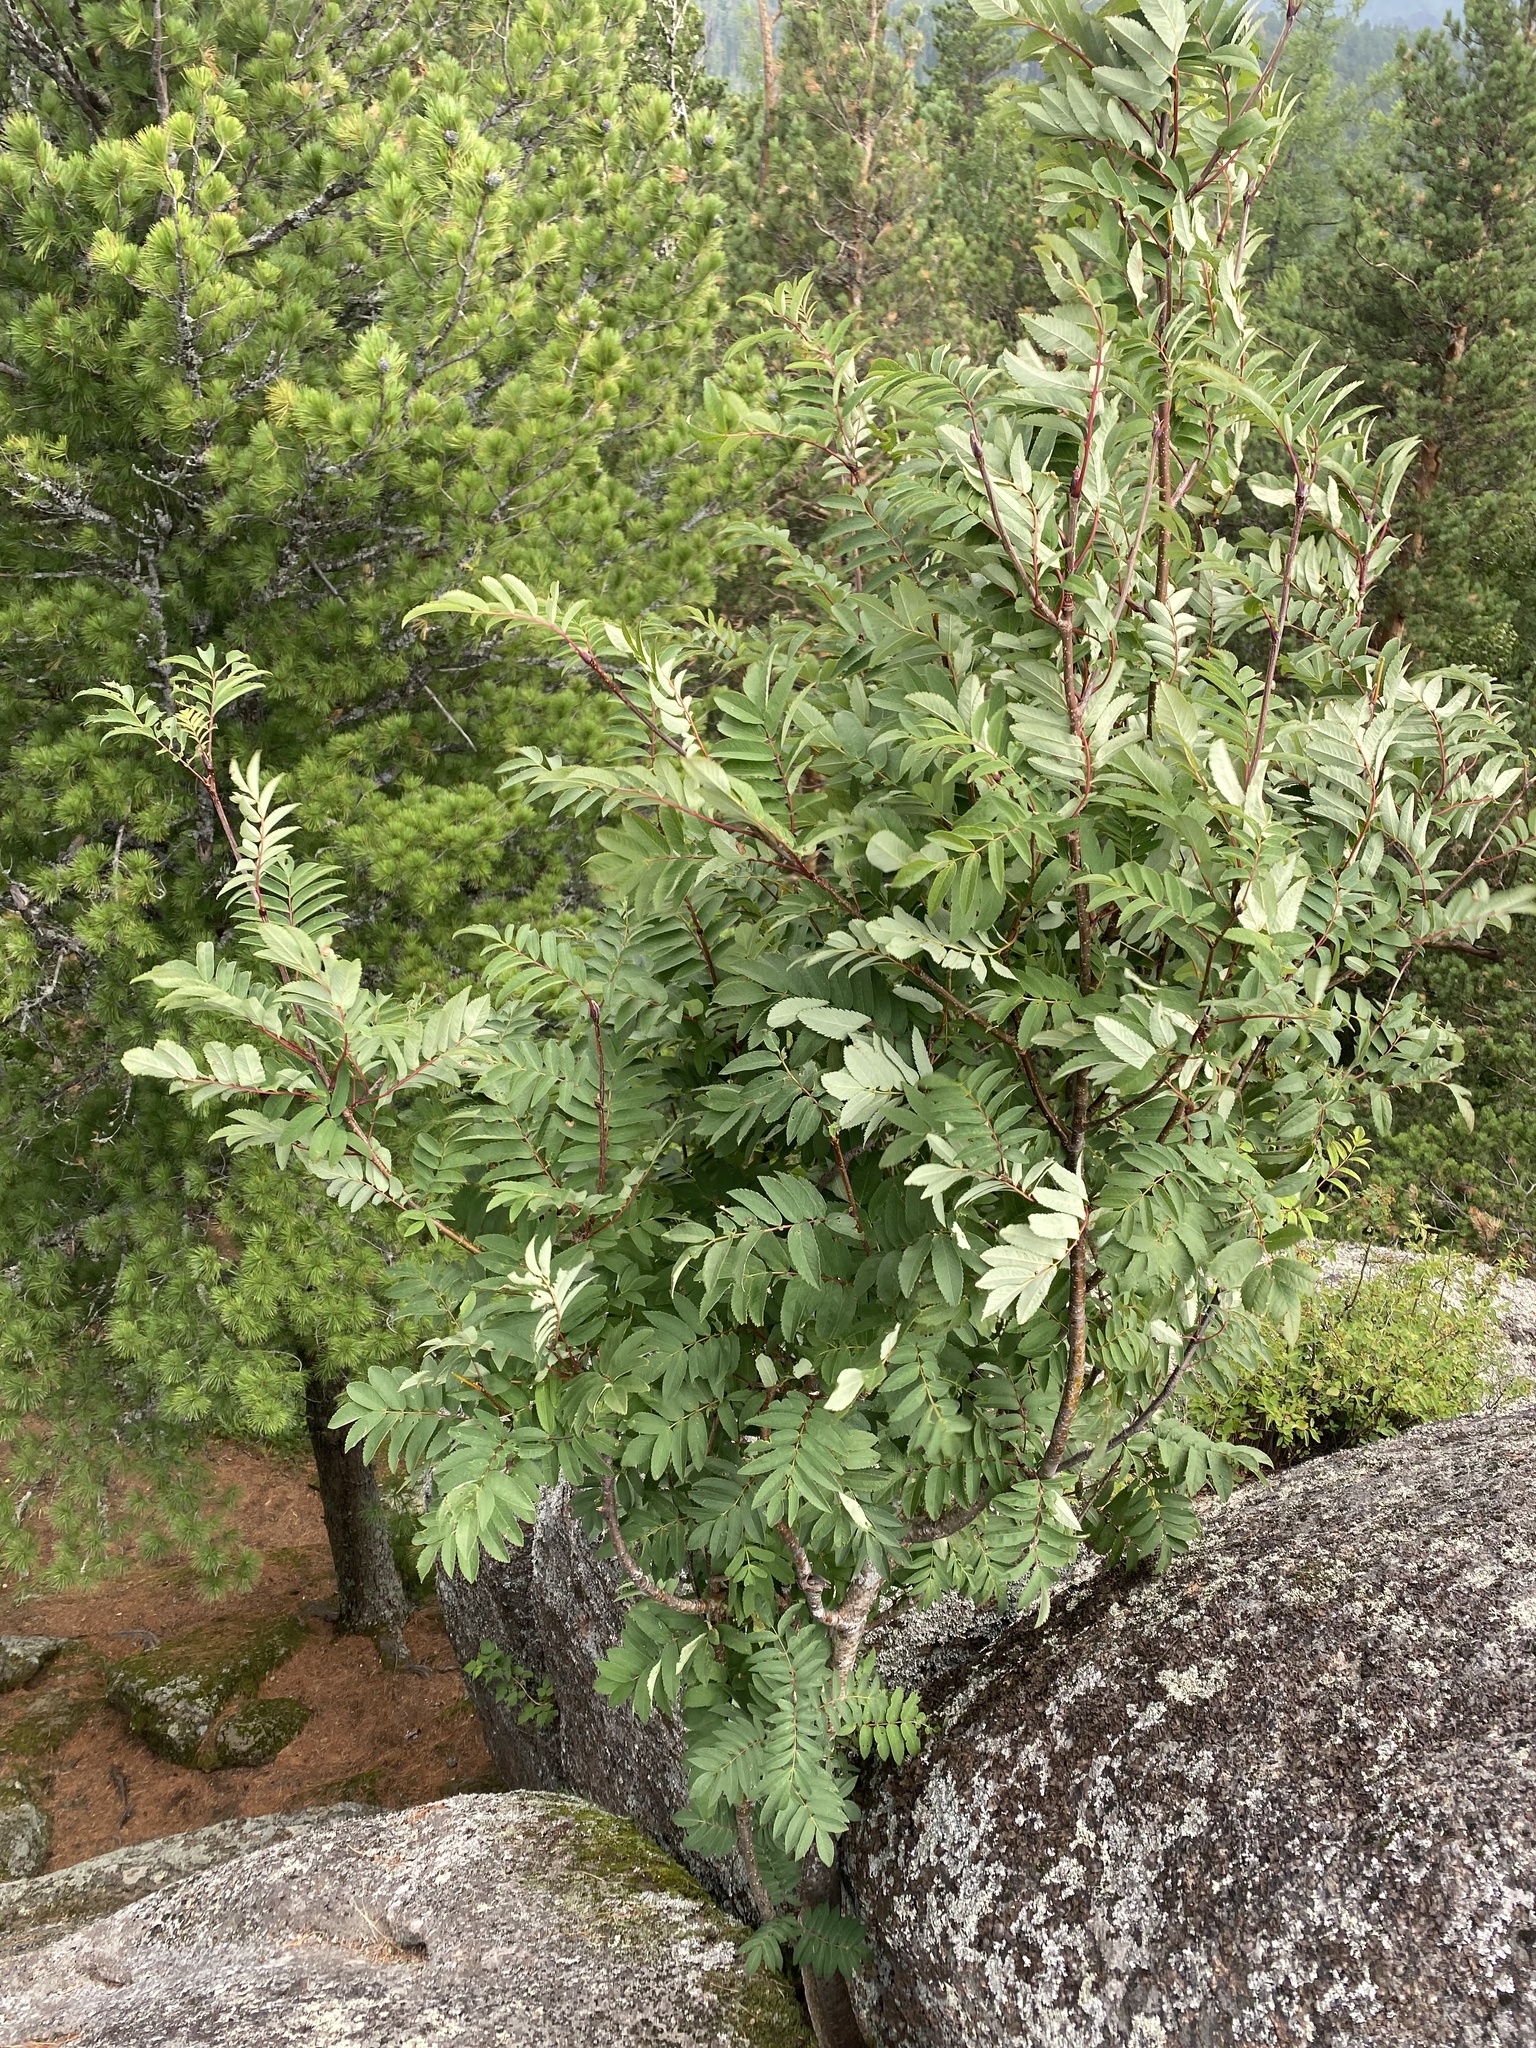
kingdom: Plantae
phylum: Tracheophyta
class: Magnoliopsida
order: Rosales
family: Rosaceae
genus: Sorbus
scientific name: Sorbus aucuparia
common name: Rowan
